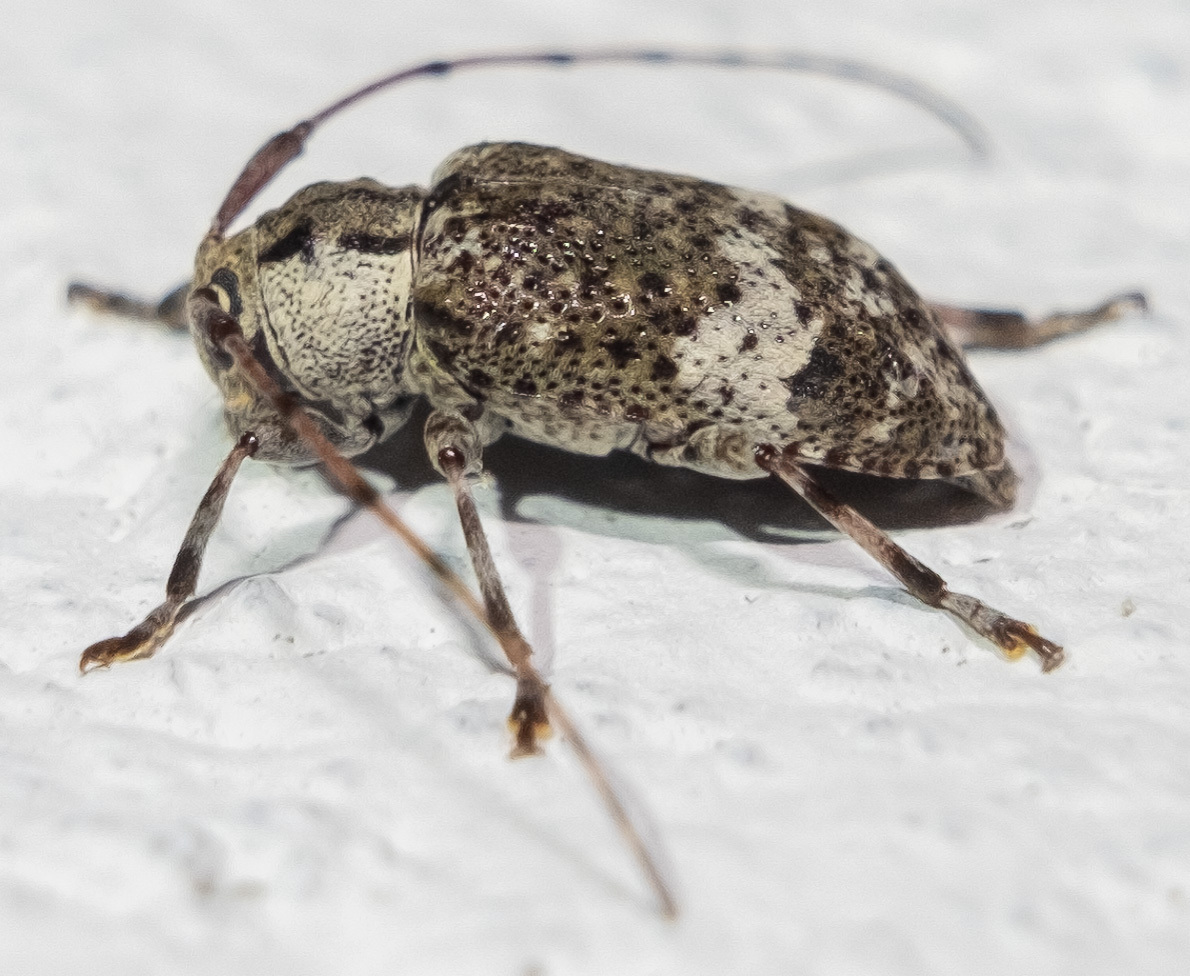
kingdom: Animalia
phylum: Arthropoda
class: Insecta
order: Coleoptera
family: Cerambycidae
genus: Astylopsis
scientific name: Astylopsis macula
